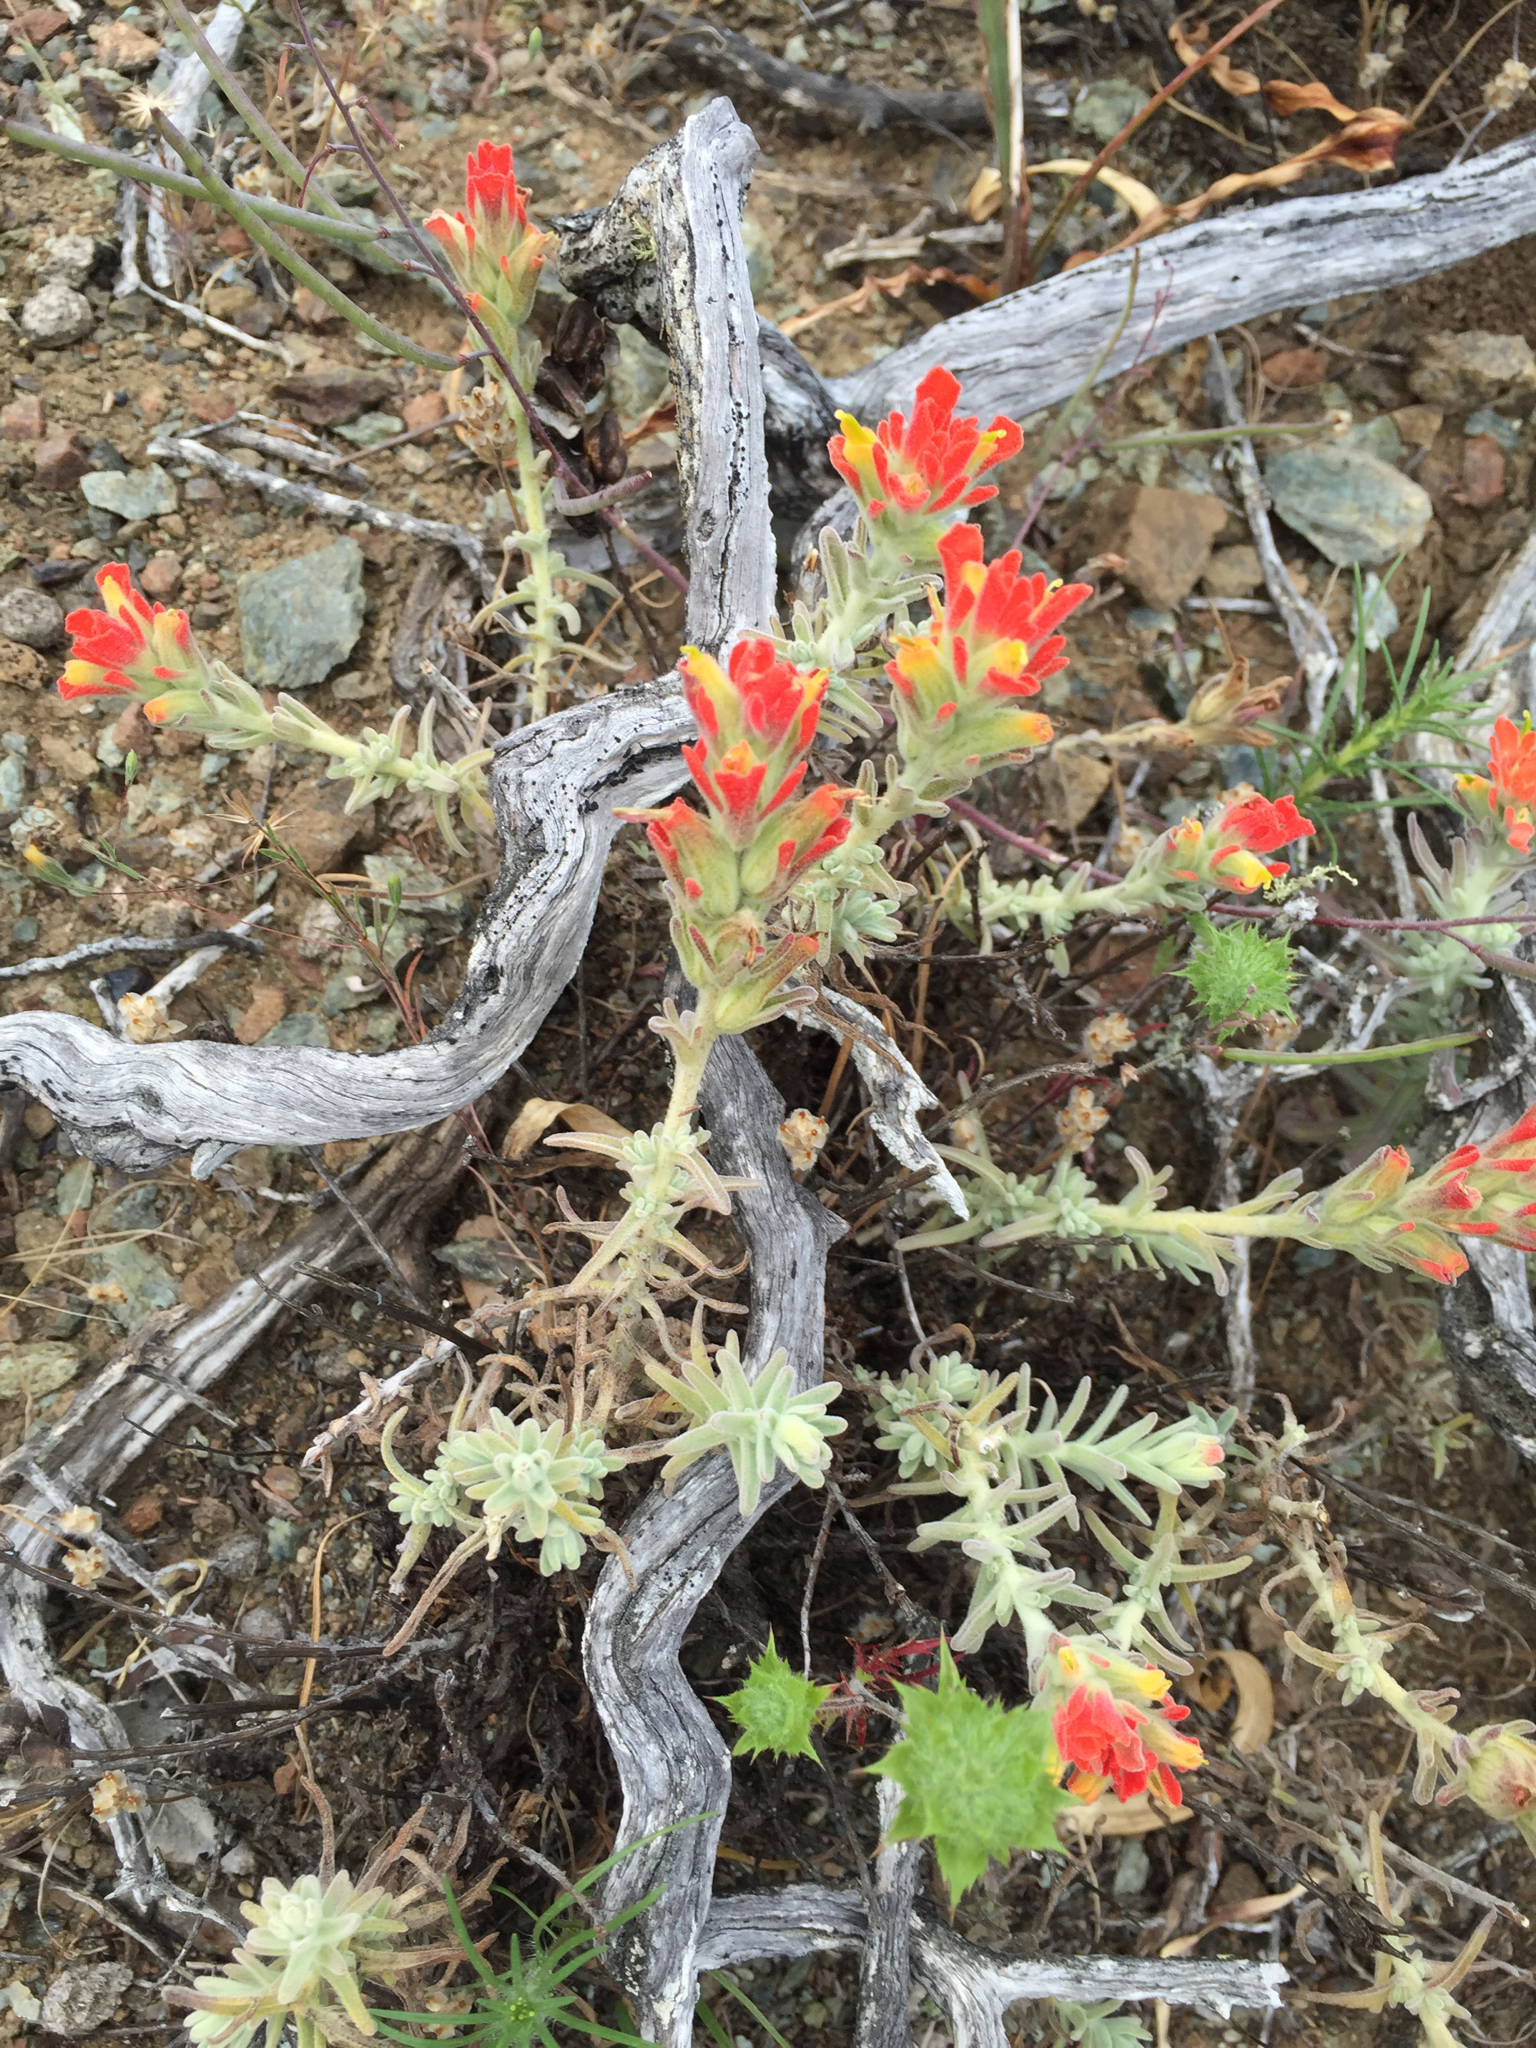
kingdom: Plantae
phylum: Tracheophyta
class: Magnoliopsida
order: Lamiales
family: Orobanchaceae
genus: Castilleja
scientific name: Castilleja foliolosa
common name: Woolly indian paintbrush
